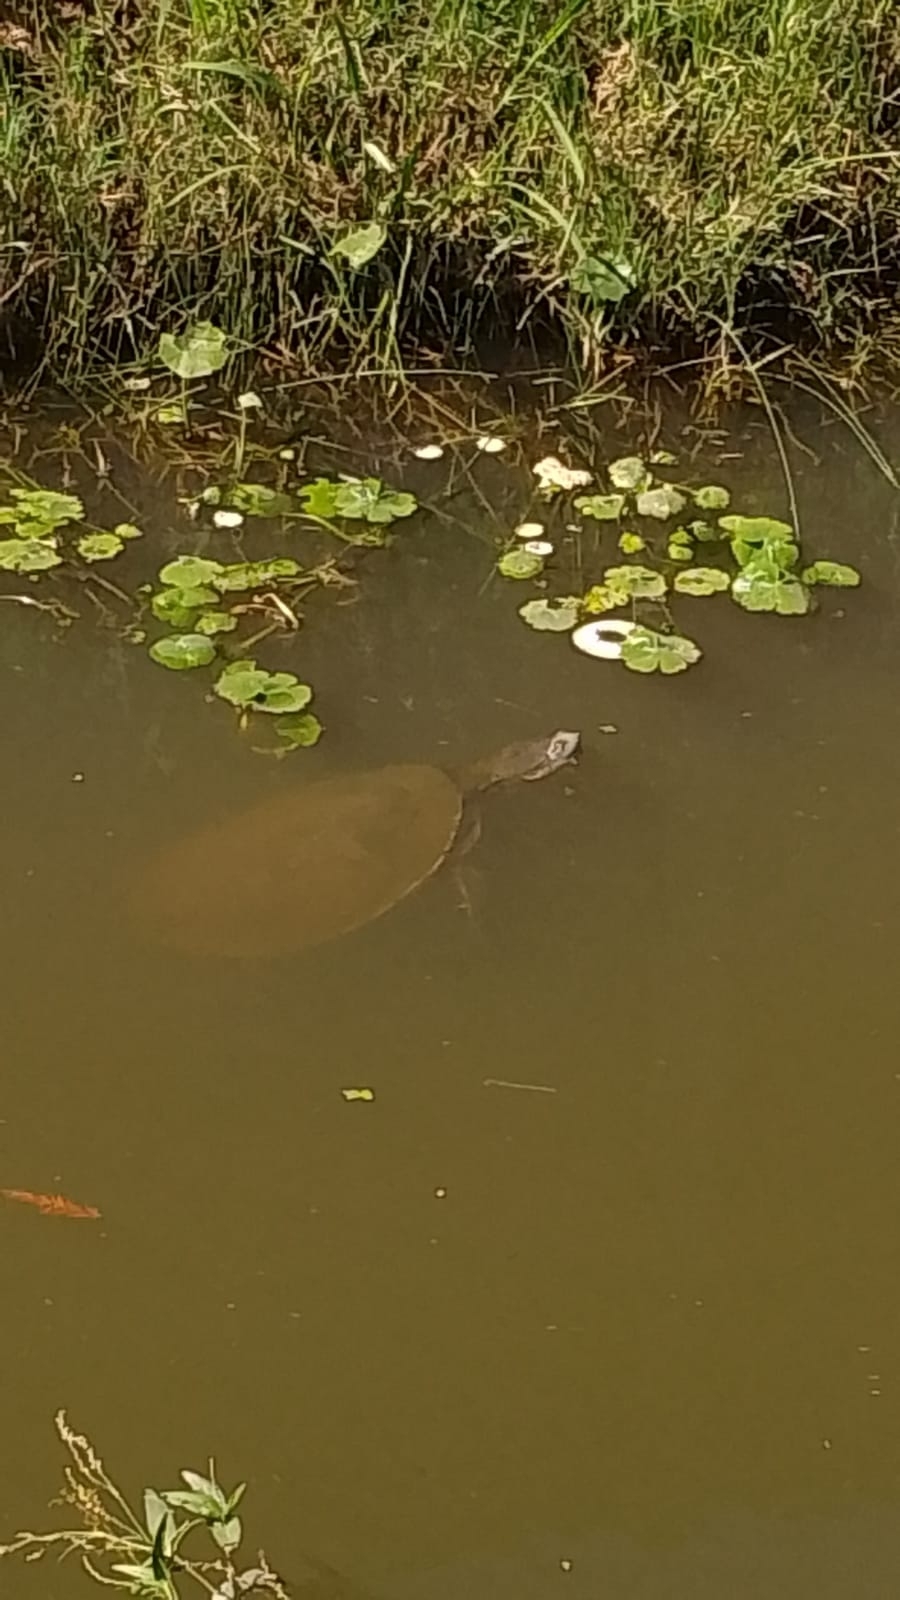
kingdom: Animalia
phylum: Chordata
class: Testudines
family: Chelidae
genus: Phrynops
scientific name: Phrynops hilarii
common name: Side-necked turtle of saint hillaire
